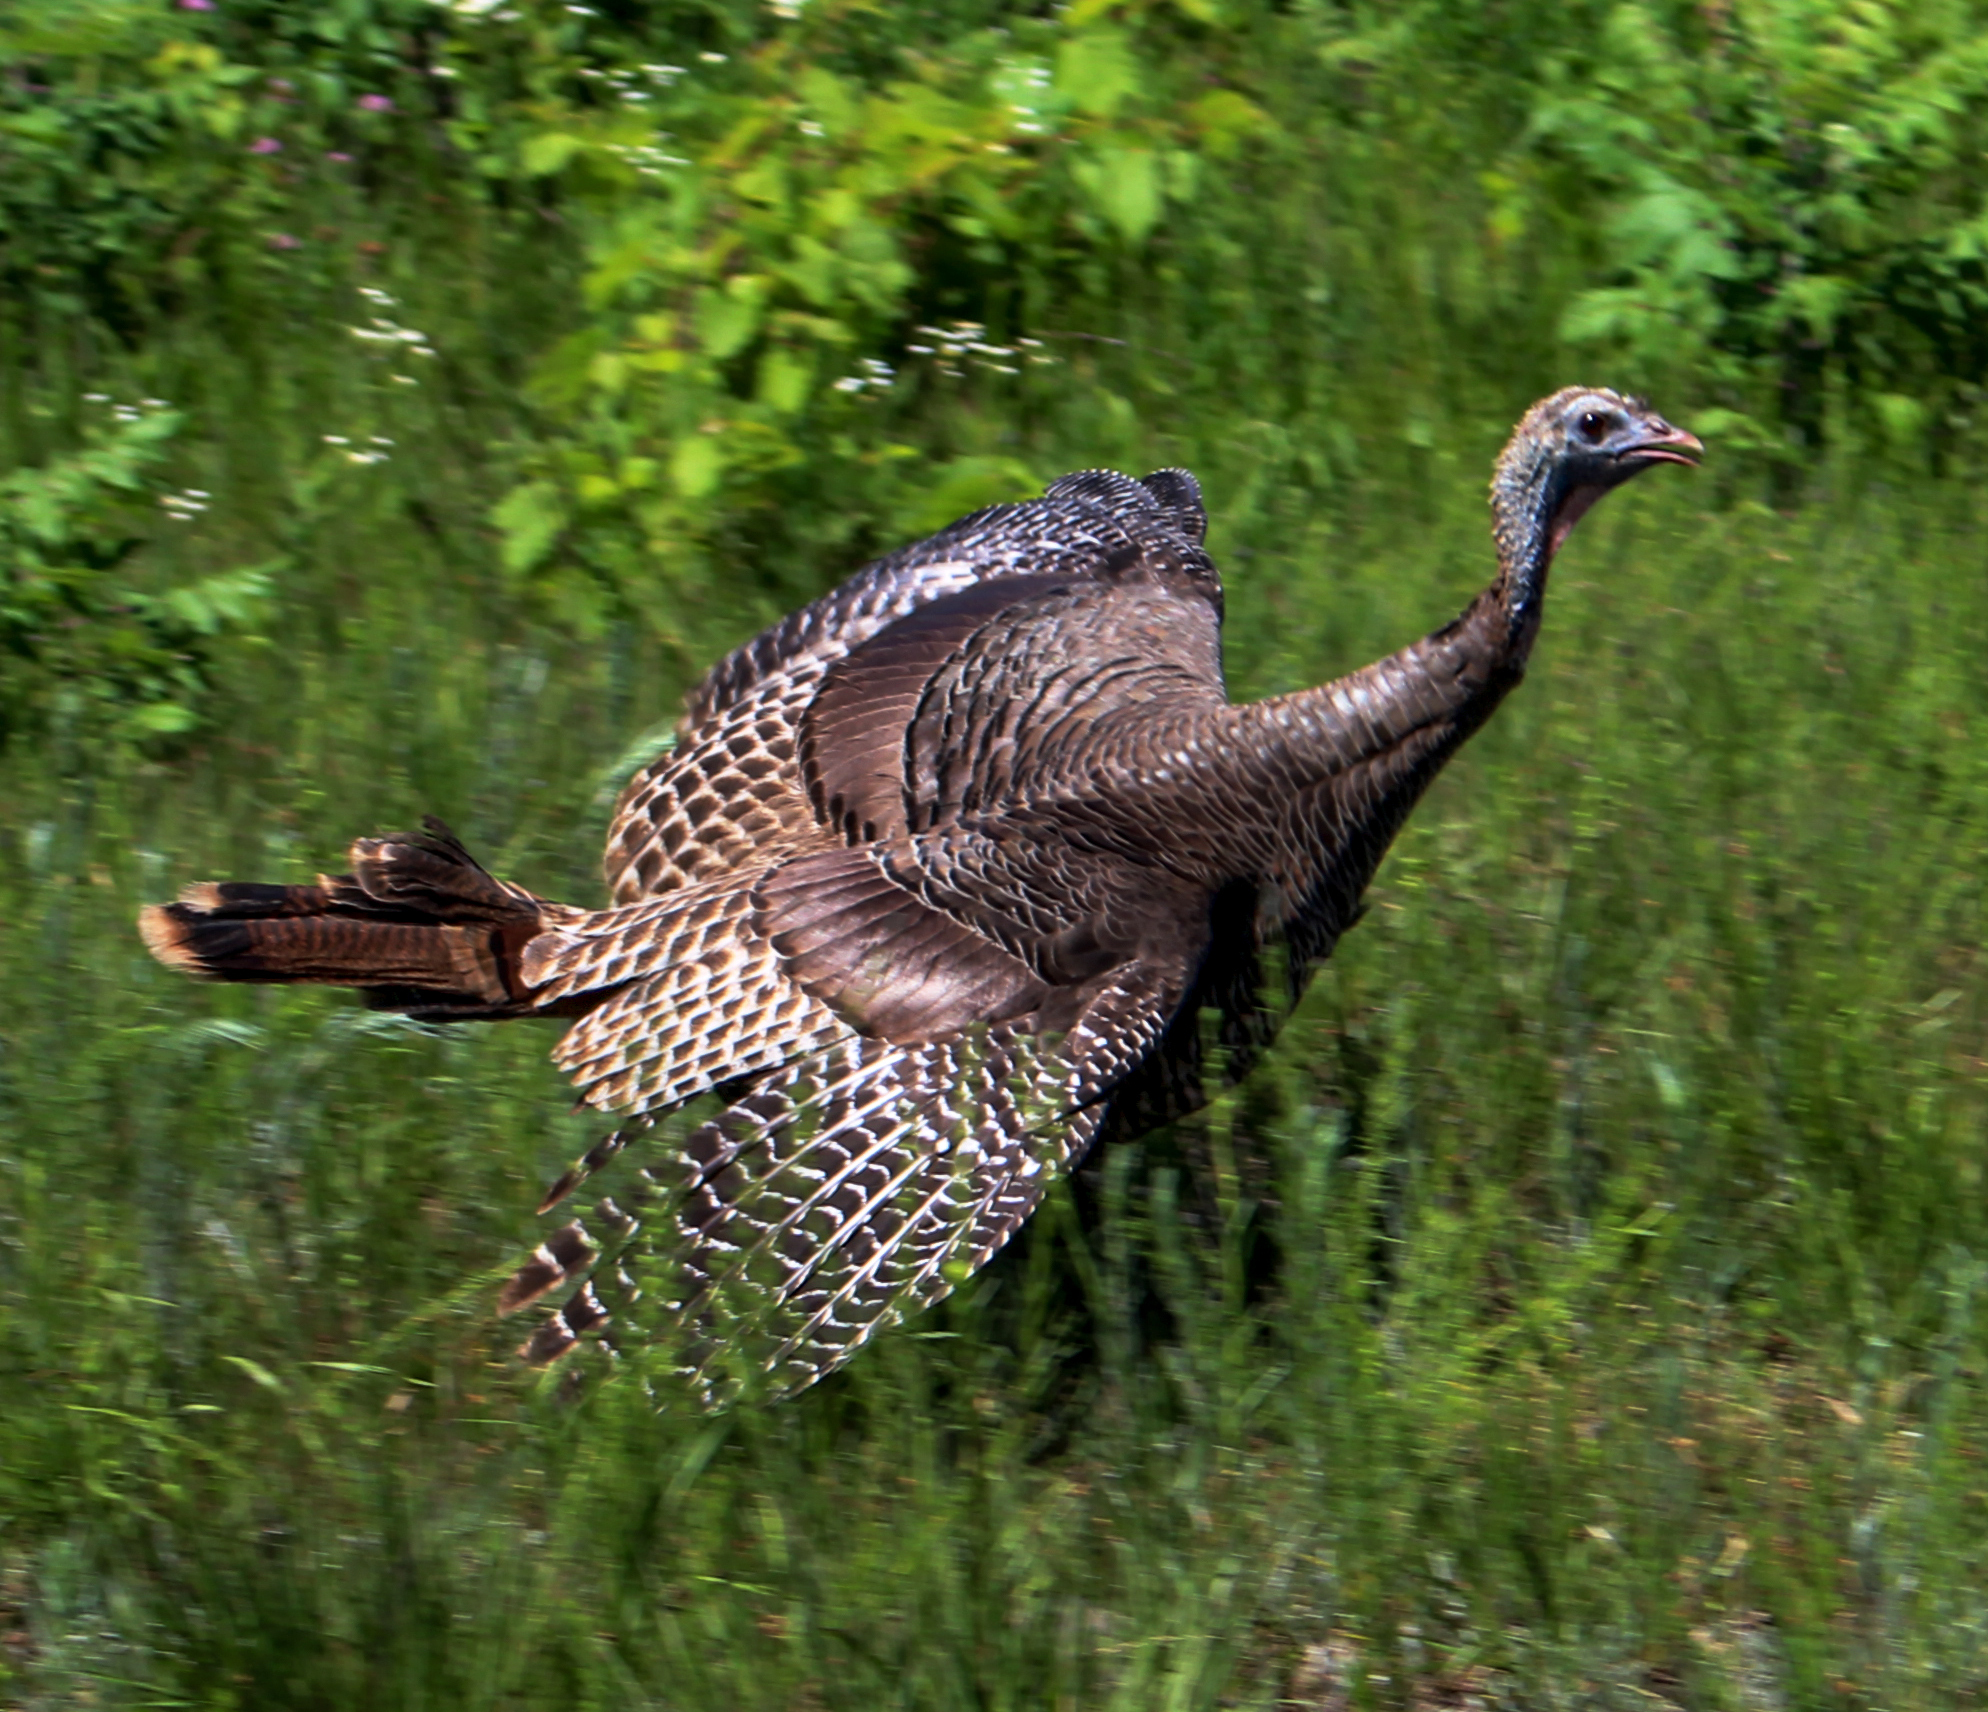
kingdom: Animalia
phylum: Chordata
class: Aves
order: Galliformes
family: Phasianidae
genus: Meleagris
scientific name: Meleagris gallopavo
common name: Wild turkey
